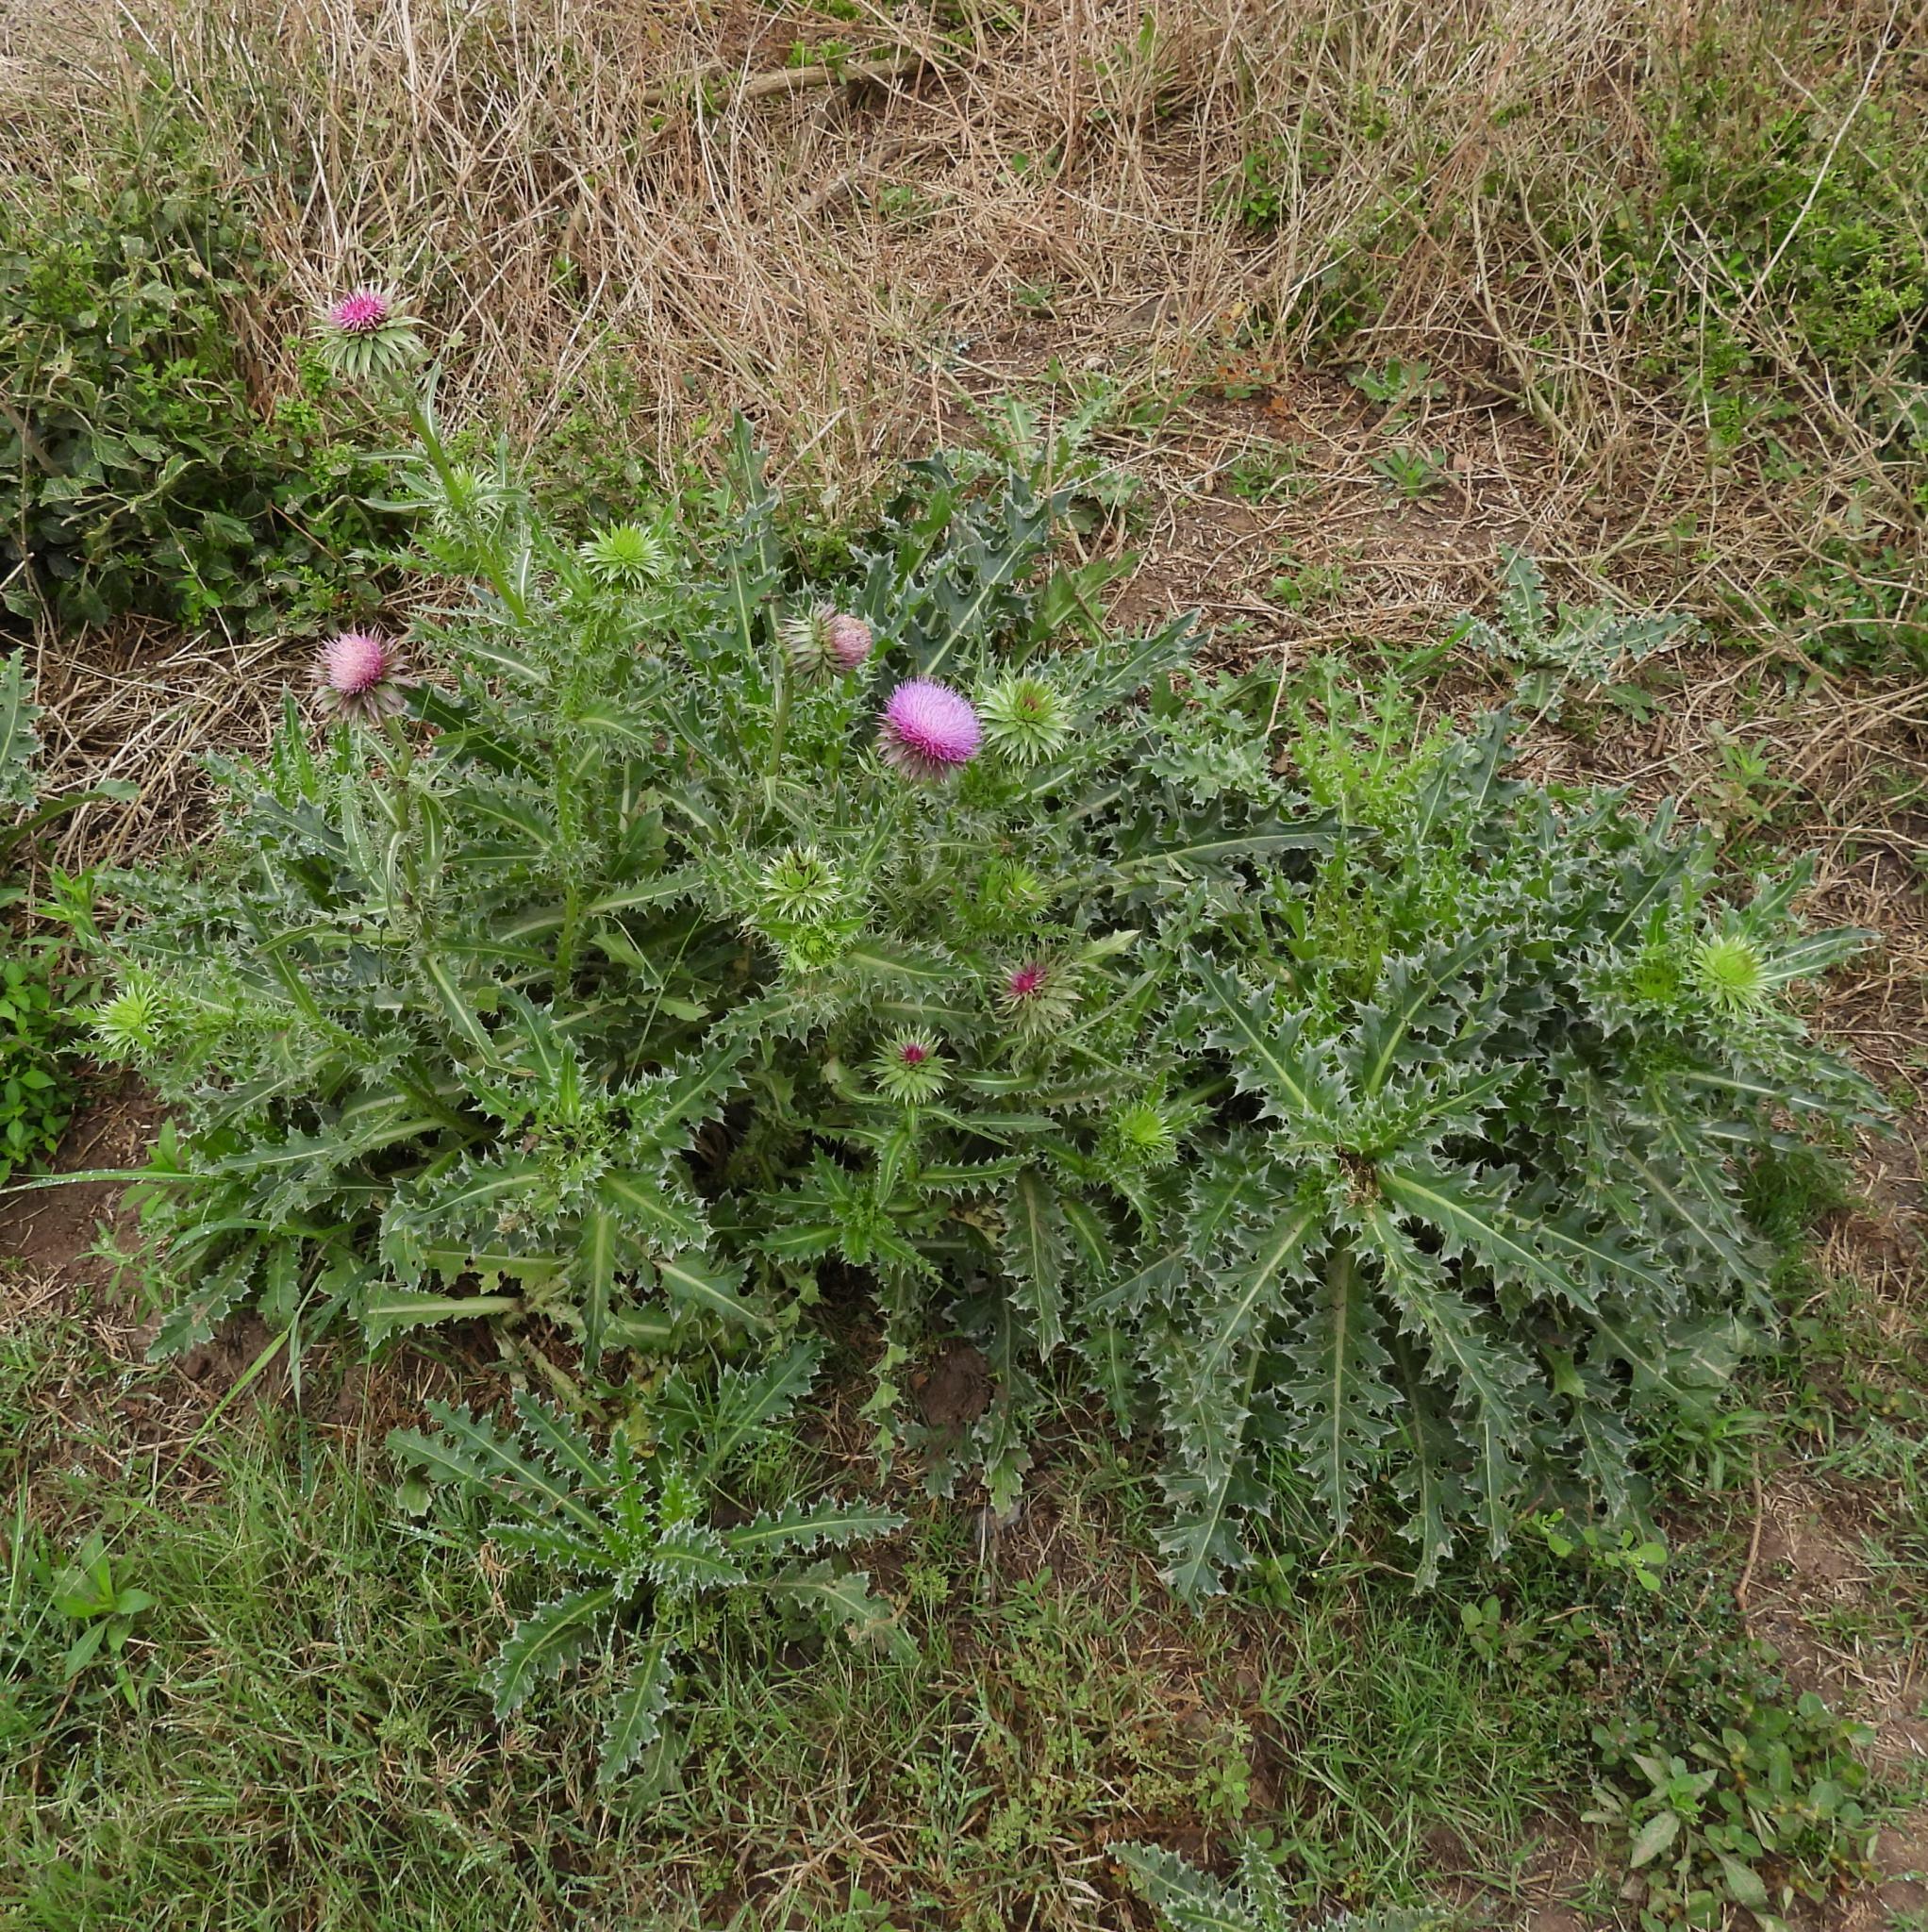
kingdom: Plantae
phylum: Tracheophyta
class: Magnoliopsida
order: Asterales
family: Asteraceae
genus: Carduus
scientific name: Carduus nutans
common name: Musk thistle
